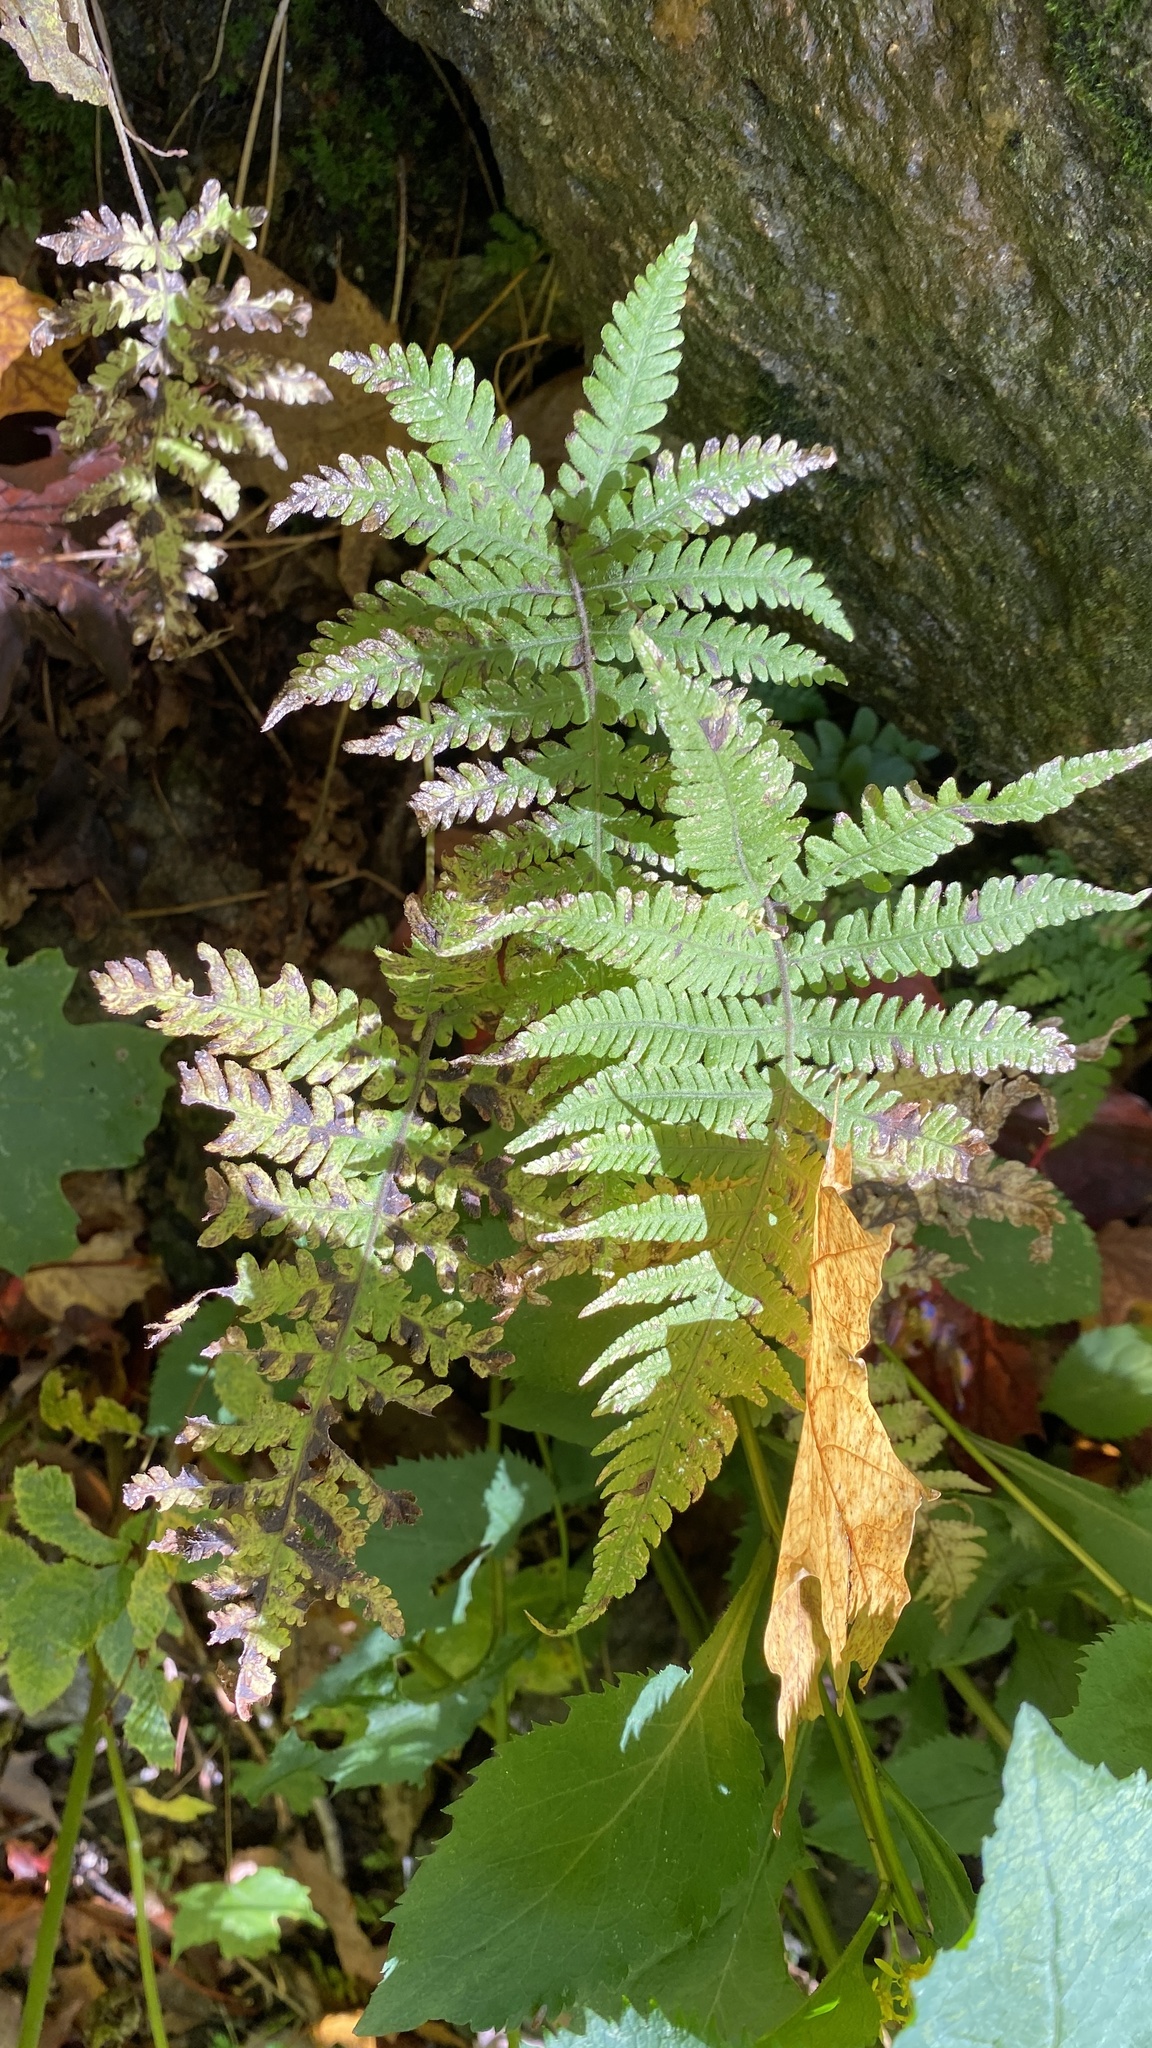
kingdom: Plantae
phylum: Tracheophyta
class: Polypodiopsida
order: Polypodiales
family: Thelypteridaceae
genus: Phegopteris
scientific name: Phegopteris connectilis
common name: Beech fern
